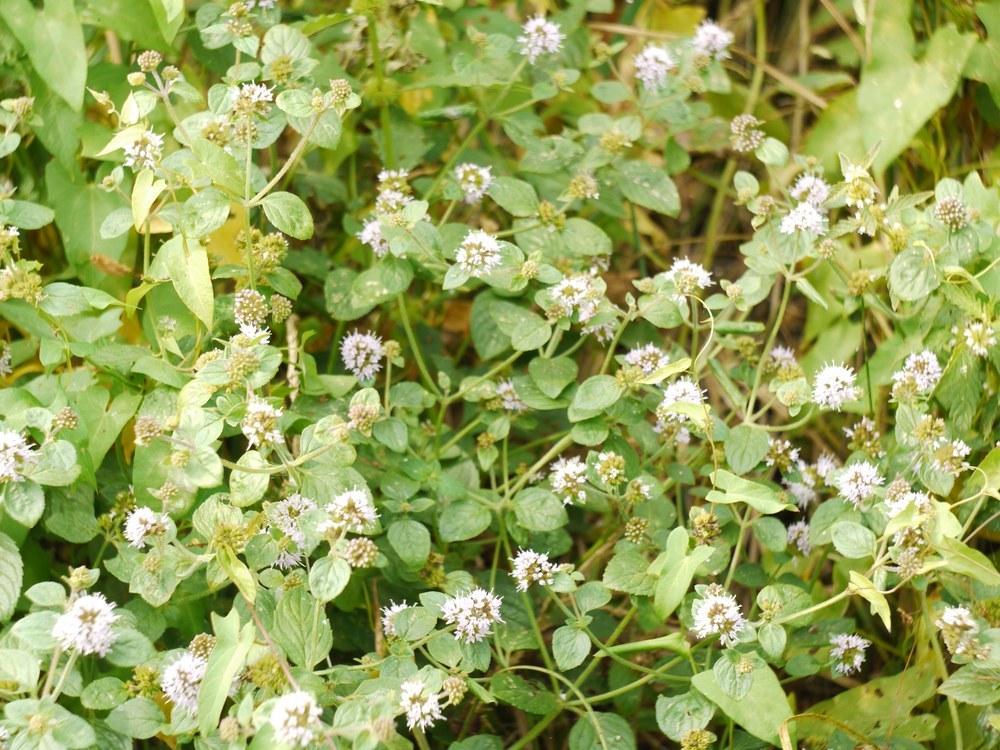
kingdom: Plantae
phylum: Tracheophyta
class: Magnoliopsida
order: Lamiales
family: Lamiaceae
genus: Mentha
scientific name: Mentha aquatica
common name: Water mint
